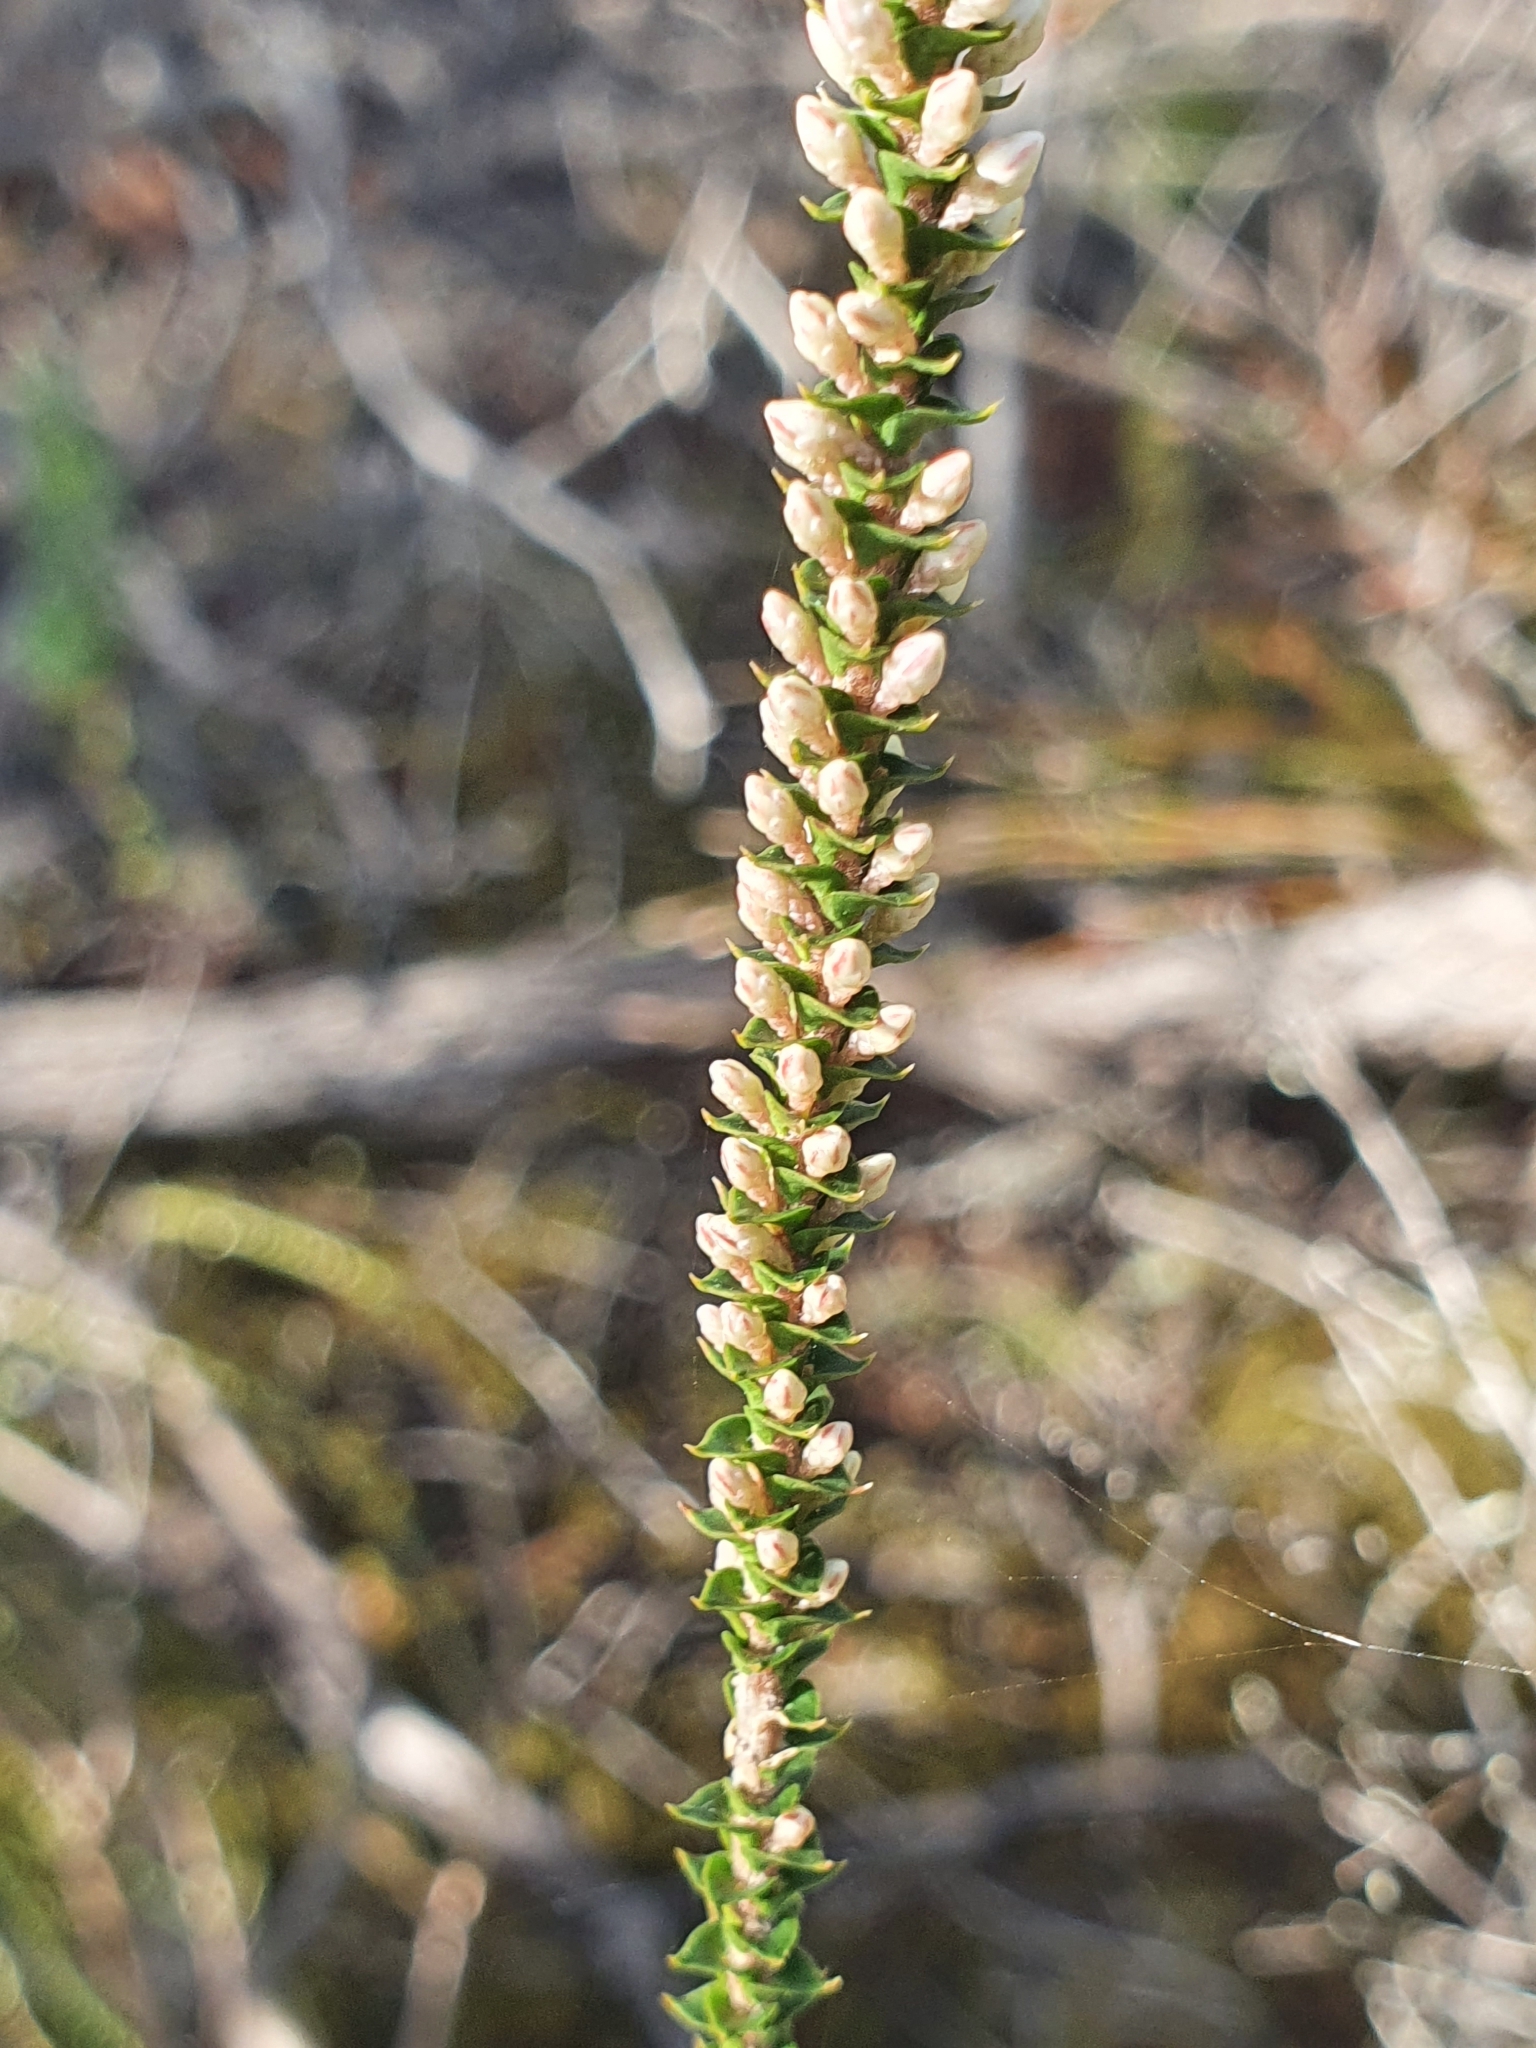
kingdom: Plantae
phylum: Tracheophyta
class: Magnoliopsida
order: Ericales
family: Ericaceae
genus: Epacris
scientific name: Epacris microphylla
